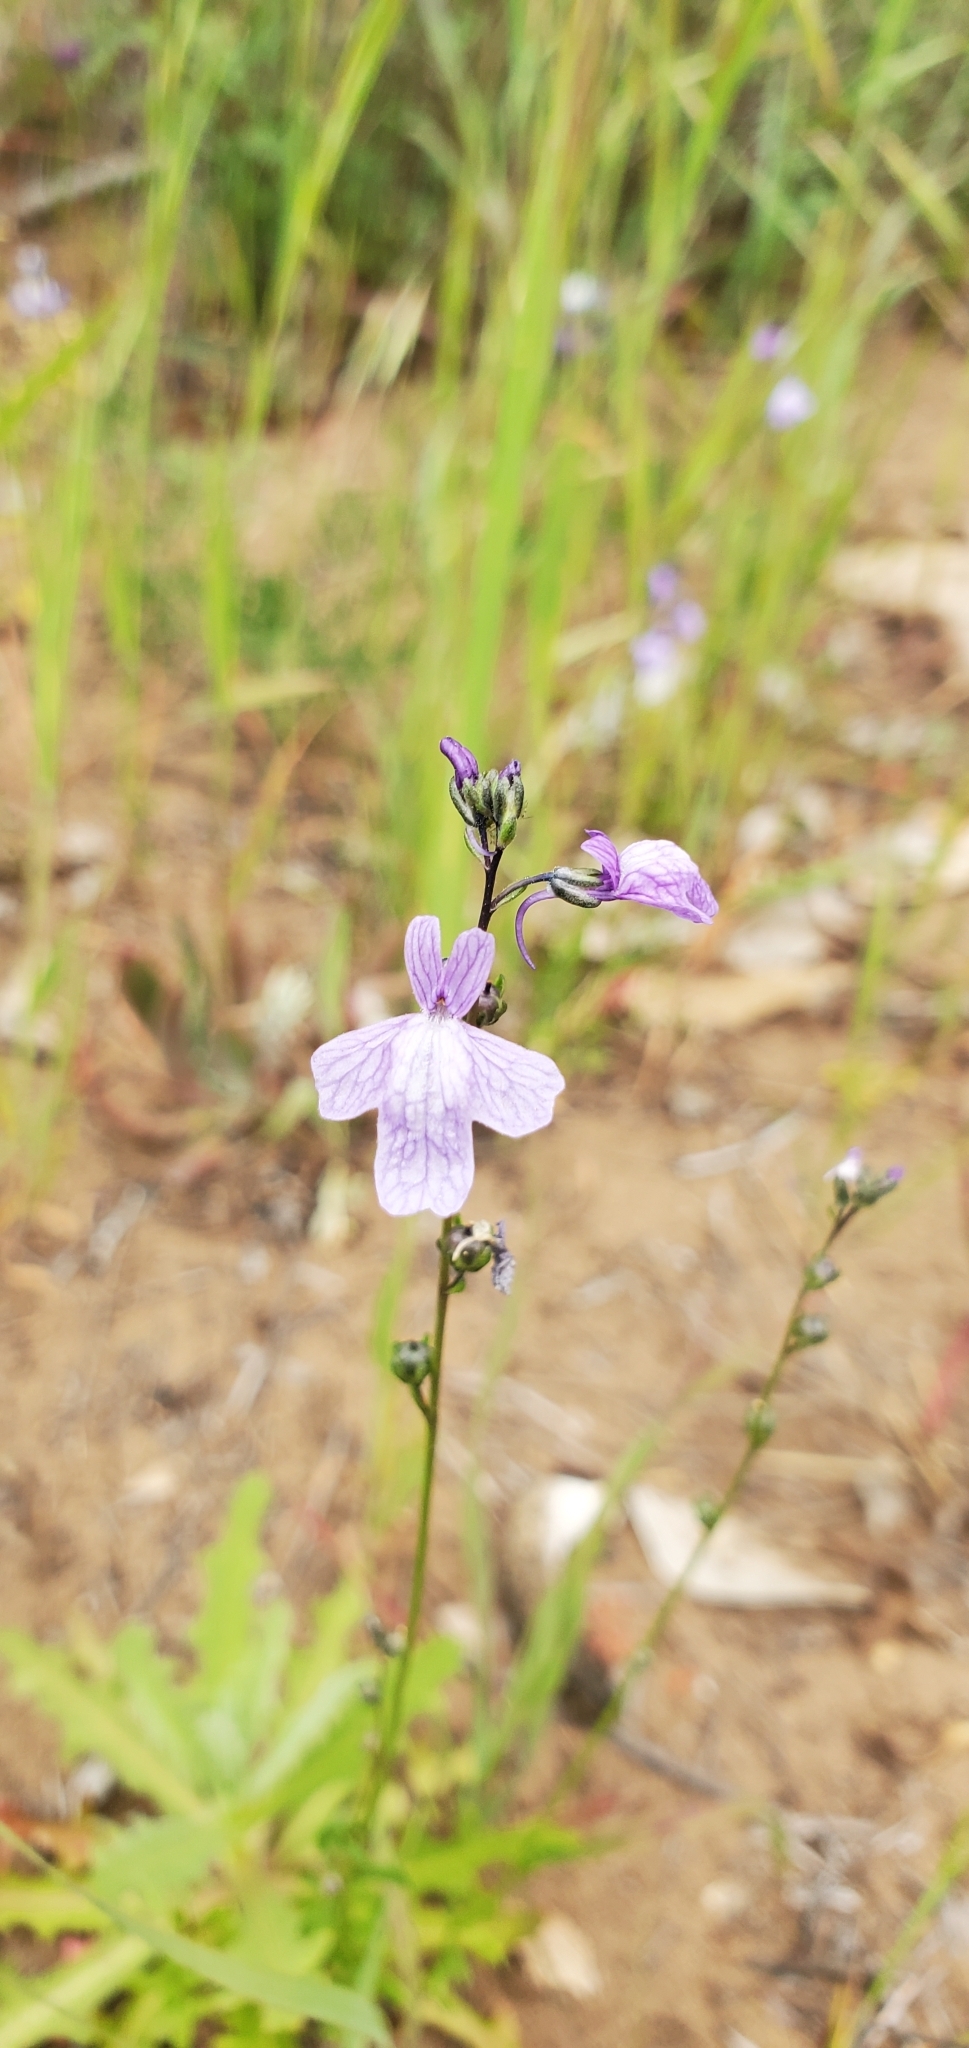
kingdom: Plantae
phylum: Tracheophyta
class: Magnoliopsida
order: Lamiales
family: Plantaginaceae
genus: Nuttallanthus
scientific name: Nuttallanthus texanus
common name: Texas toadflax
